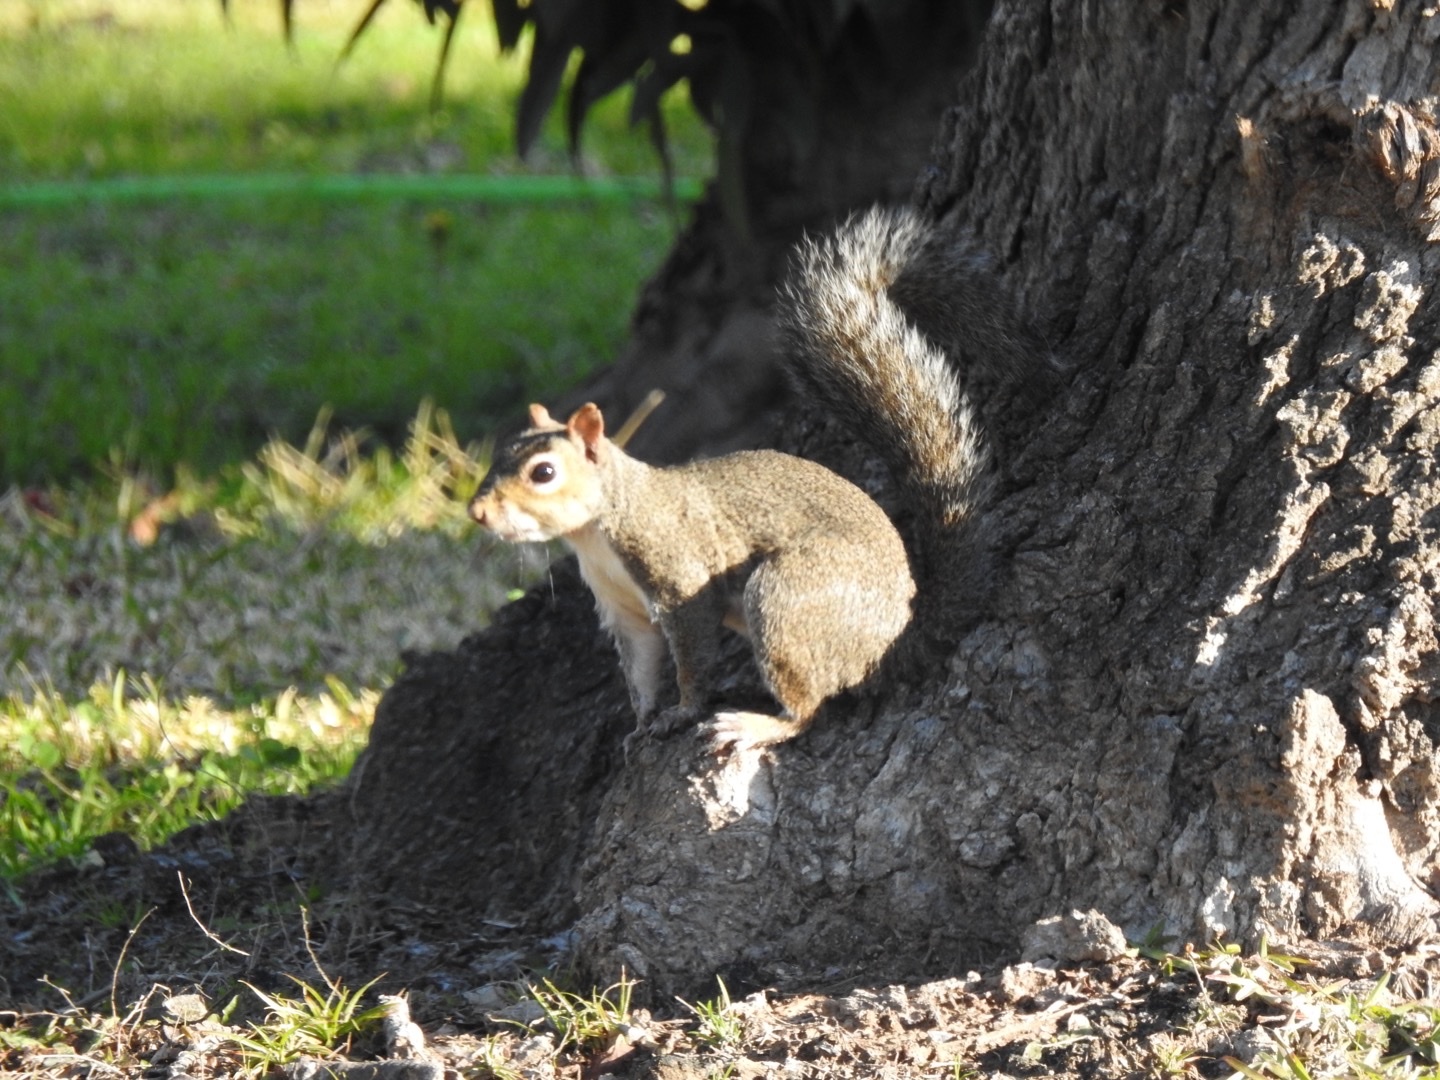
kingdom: Animalia
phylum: Chordata
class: Mammalia
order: Rodentia
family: Sciuridae
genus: Sciurus
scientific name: Sciurus carolinensis
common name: Eastern gray squirrel
